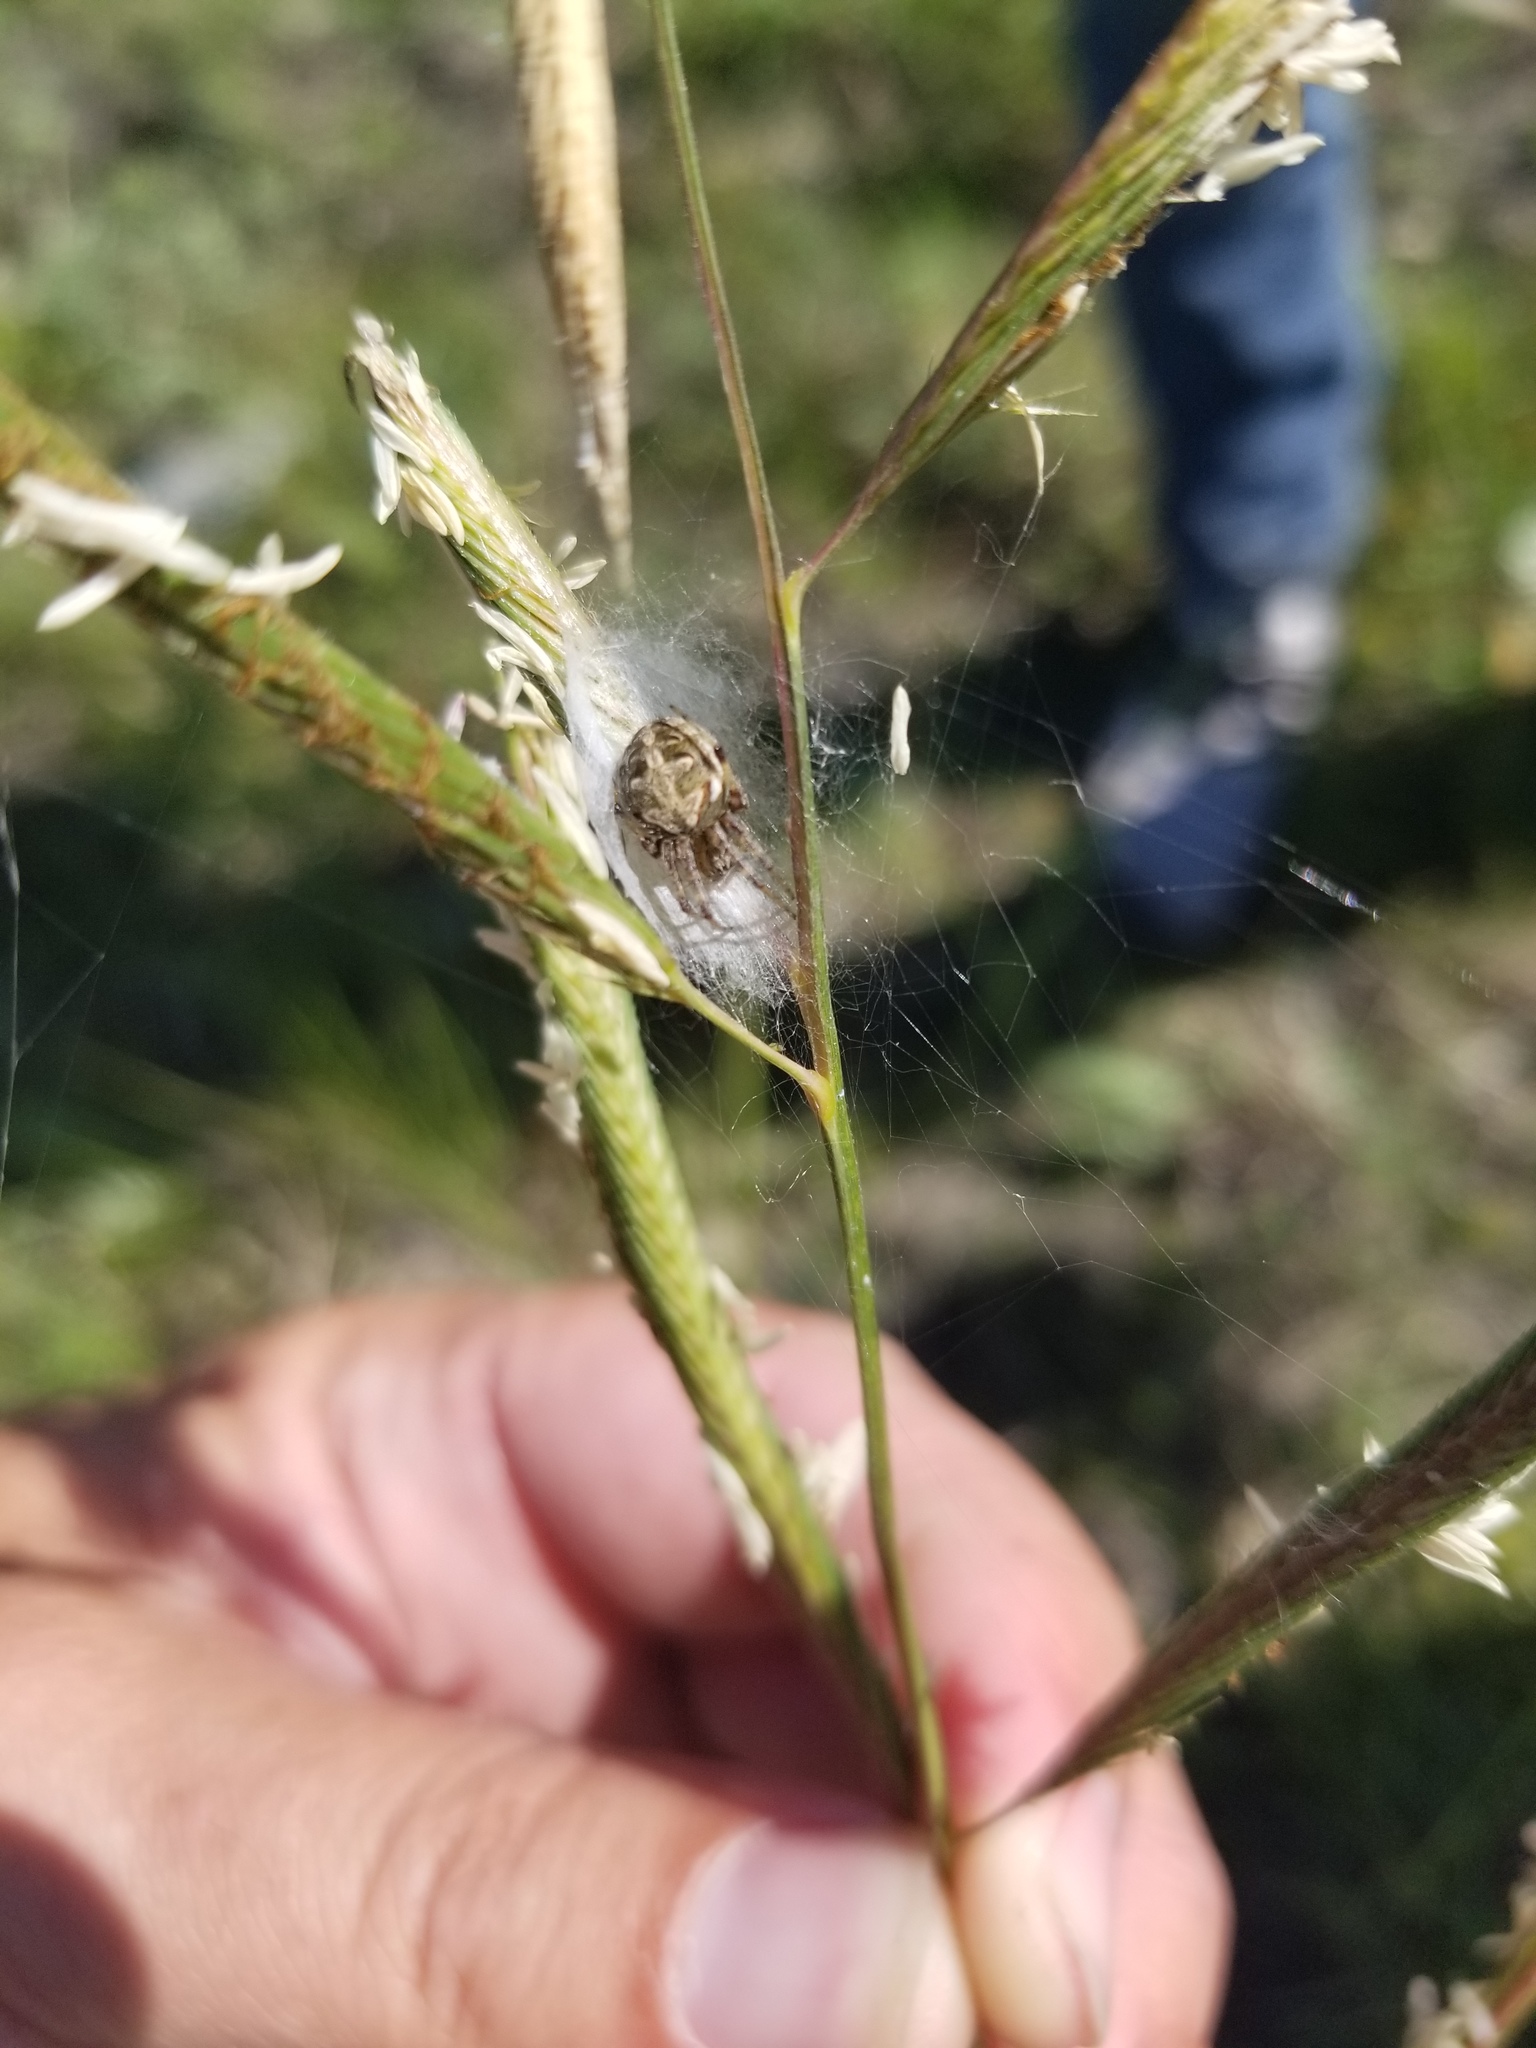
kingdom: Animalia
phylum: Arthropoda
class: Arachnida
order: Araneae
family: Araneidae
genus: Neoscona
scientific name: Neoscona arabesca
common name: Orb weavers
